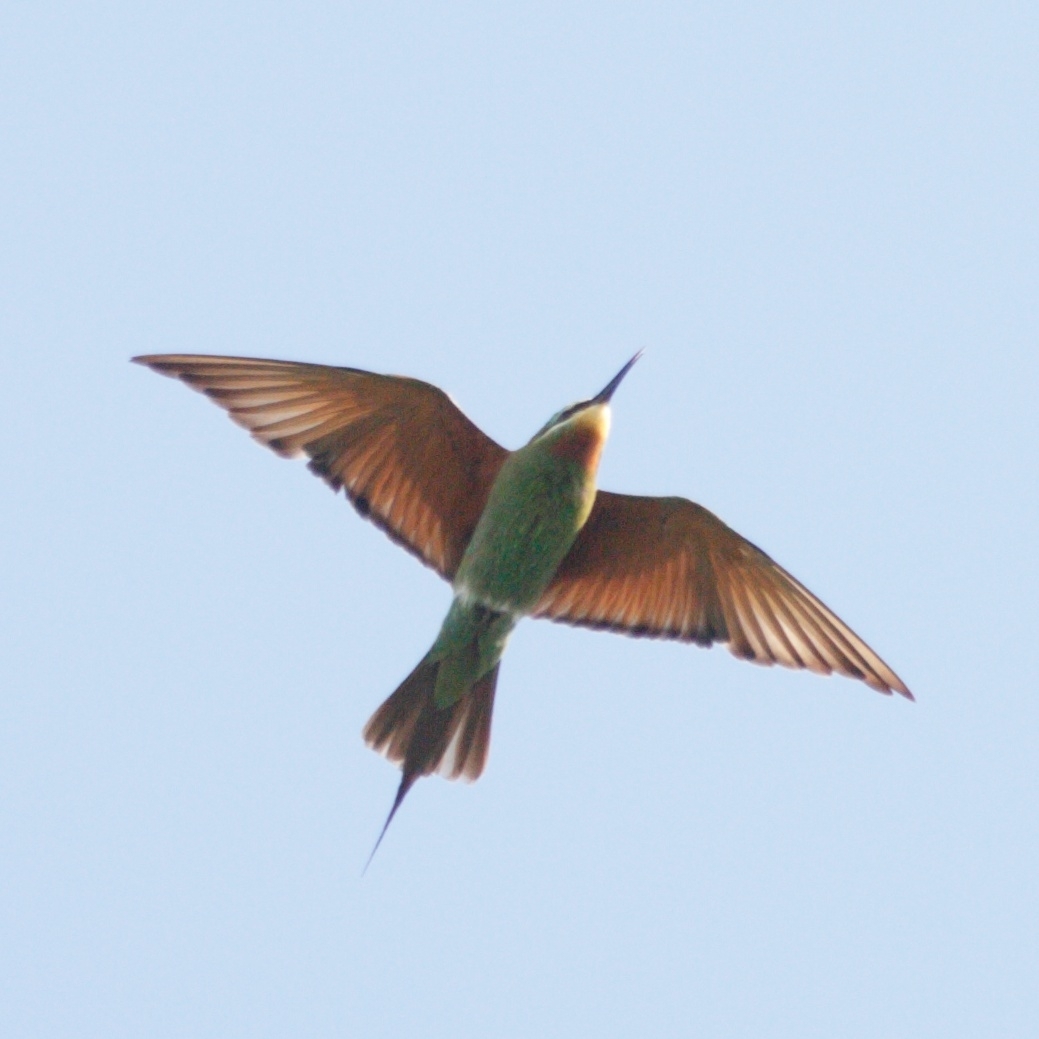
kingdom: Animalia
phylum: Chordata
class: Aves
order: Coraciiformes
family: Meropidae
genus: Merops
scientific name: Merops persicus
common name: Blue-cheeked bee-eater
